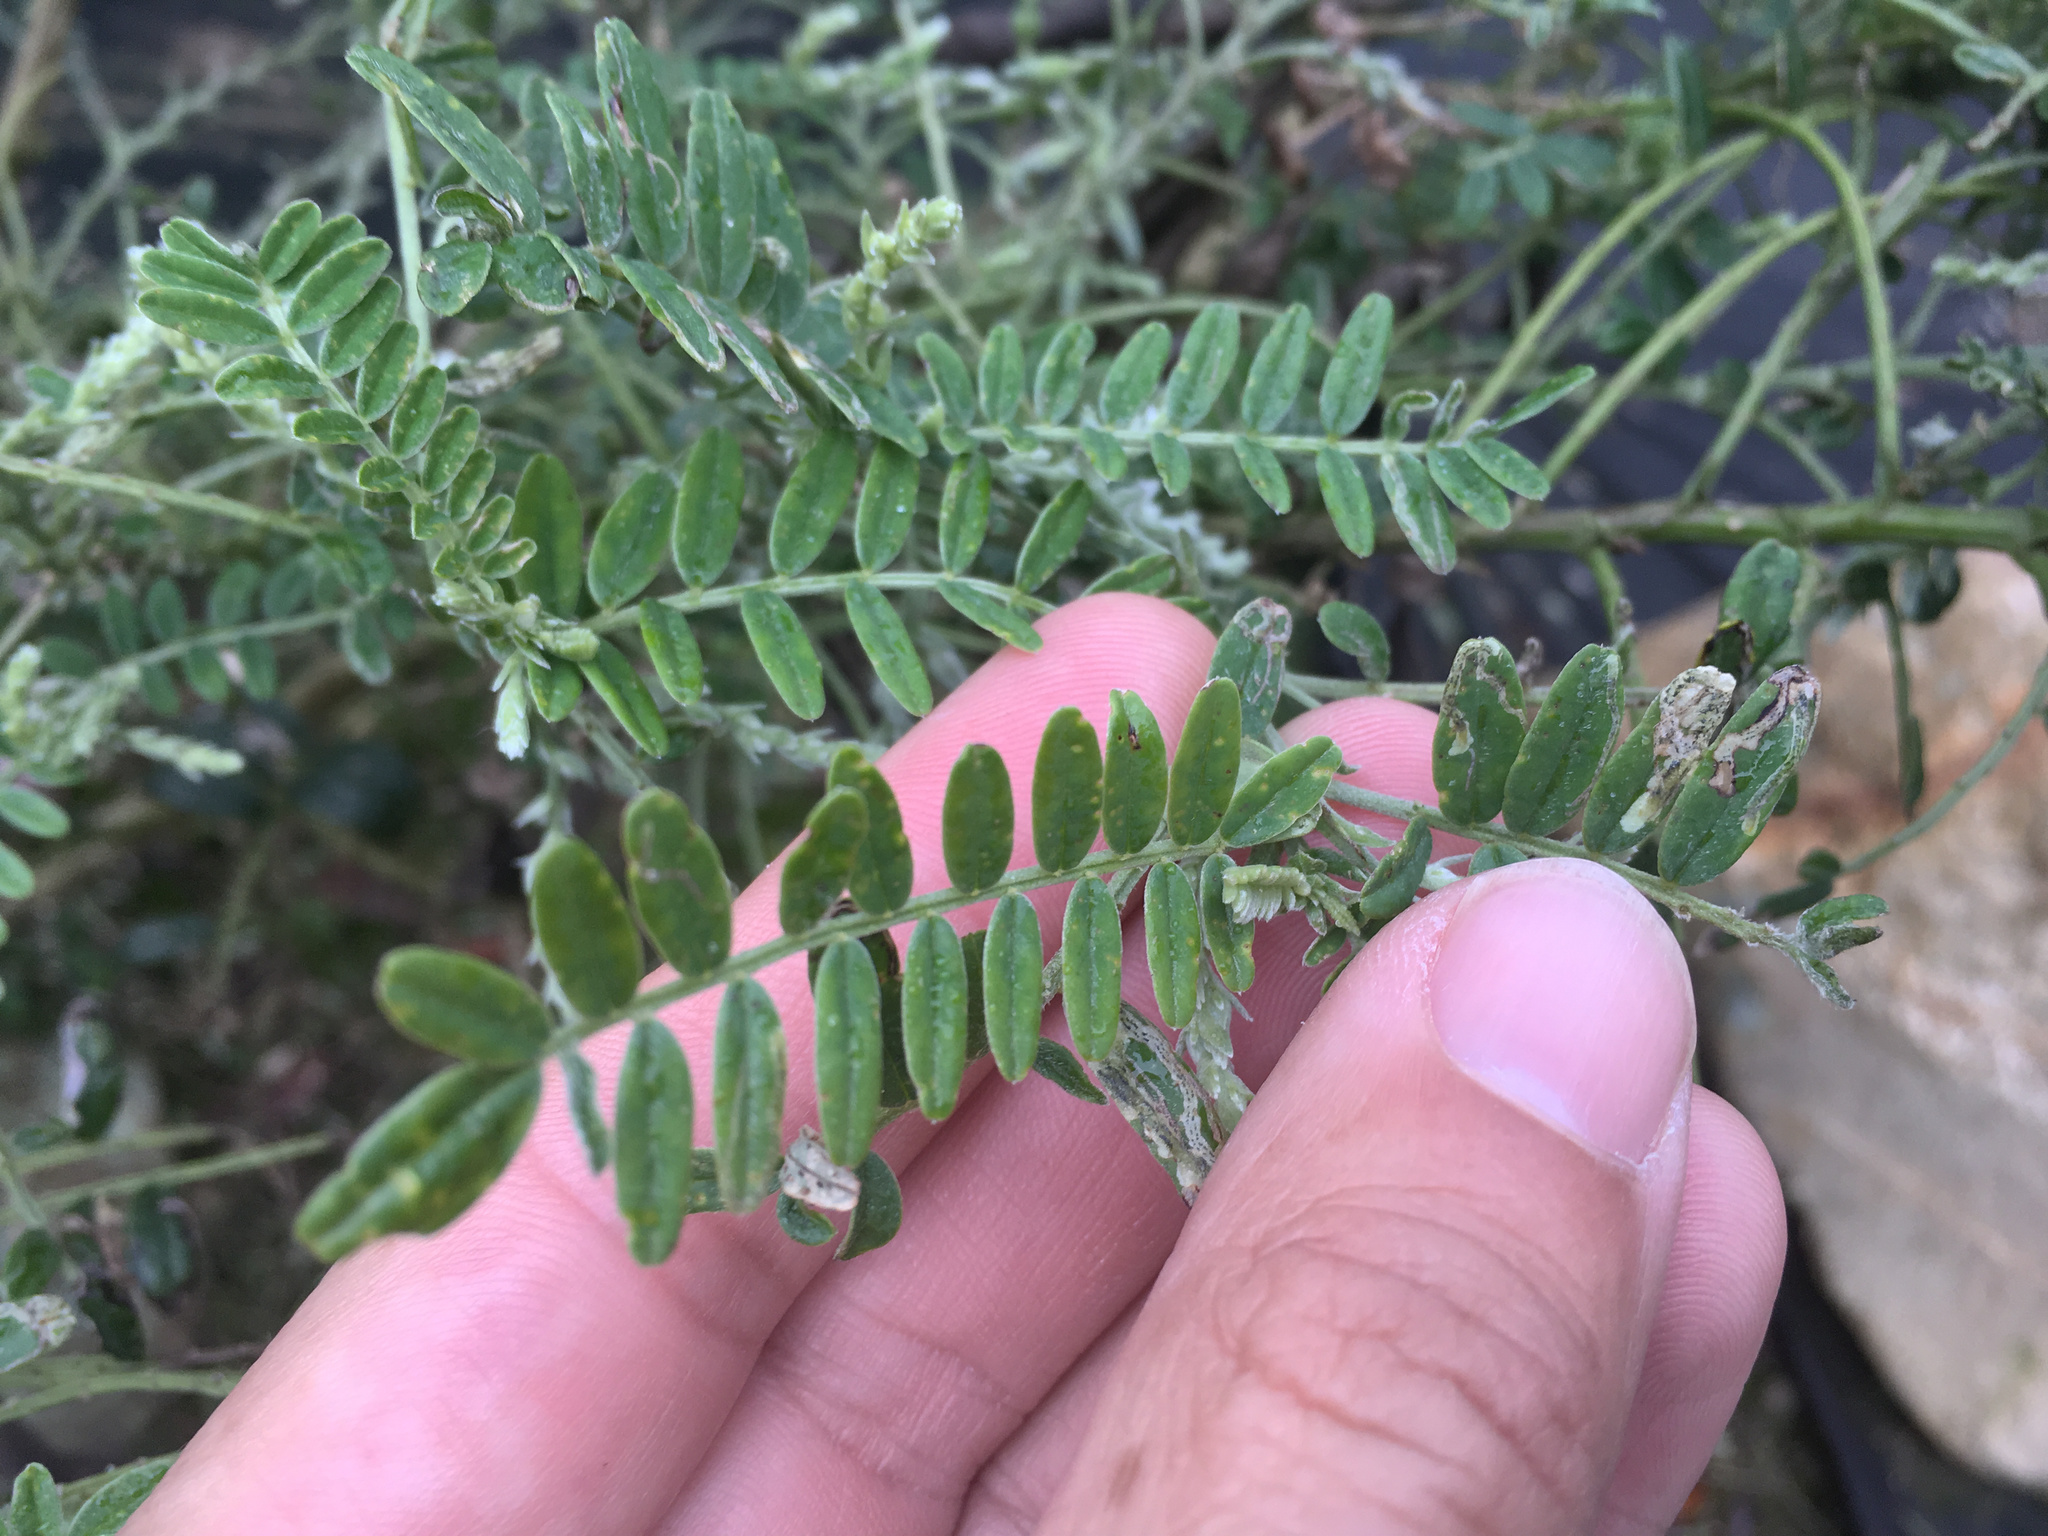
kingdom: Animalia
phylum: Arthropoda
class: Insecta
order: Diptera
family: Agromyzidae
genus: Liriomyza
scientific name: Liriomyza clianthi
